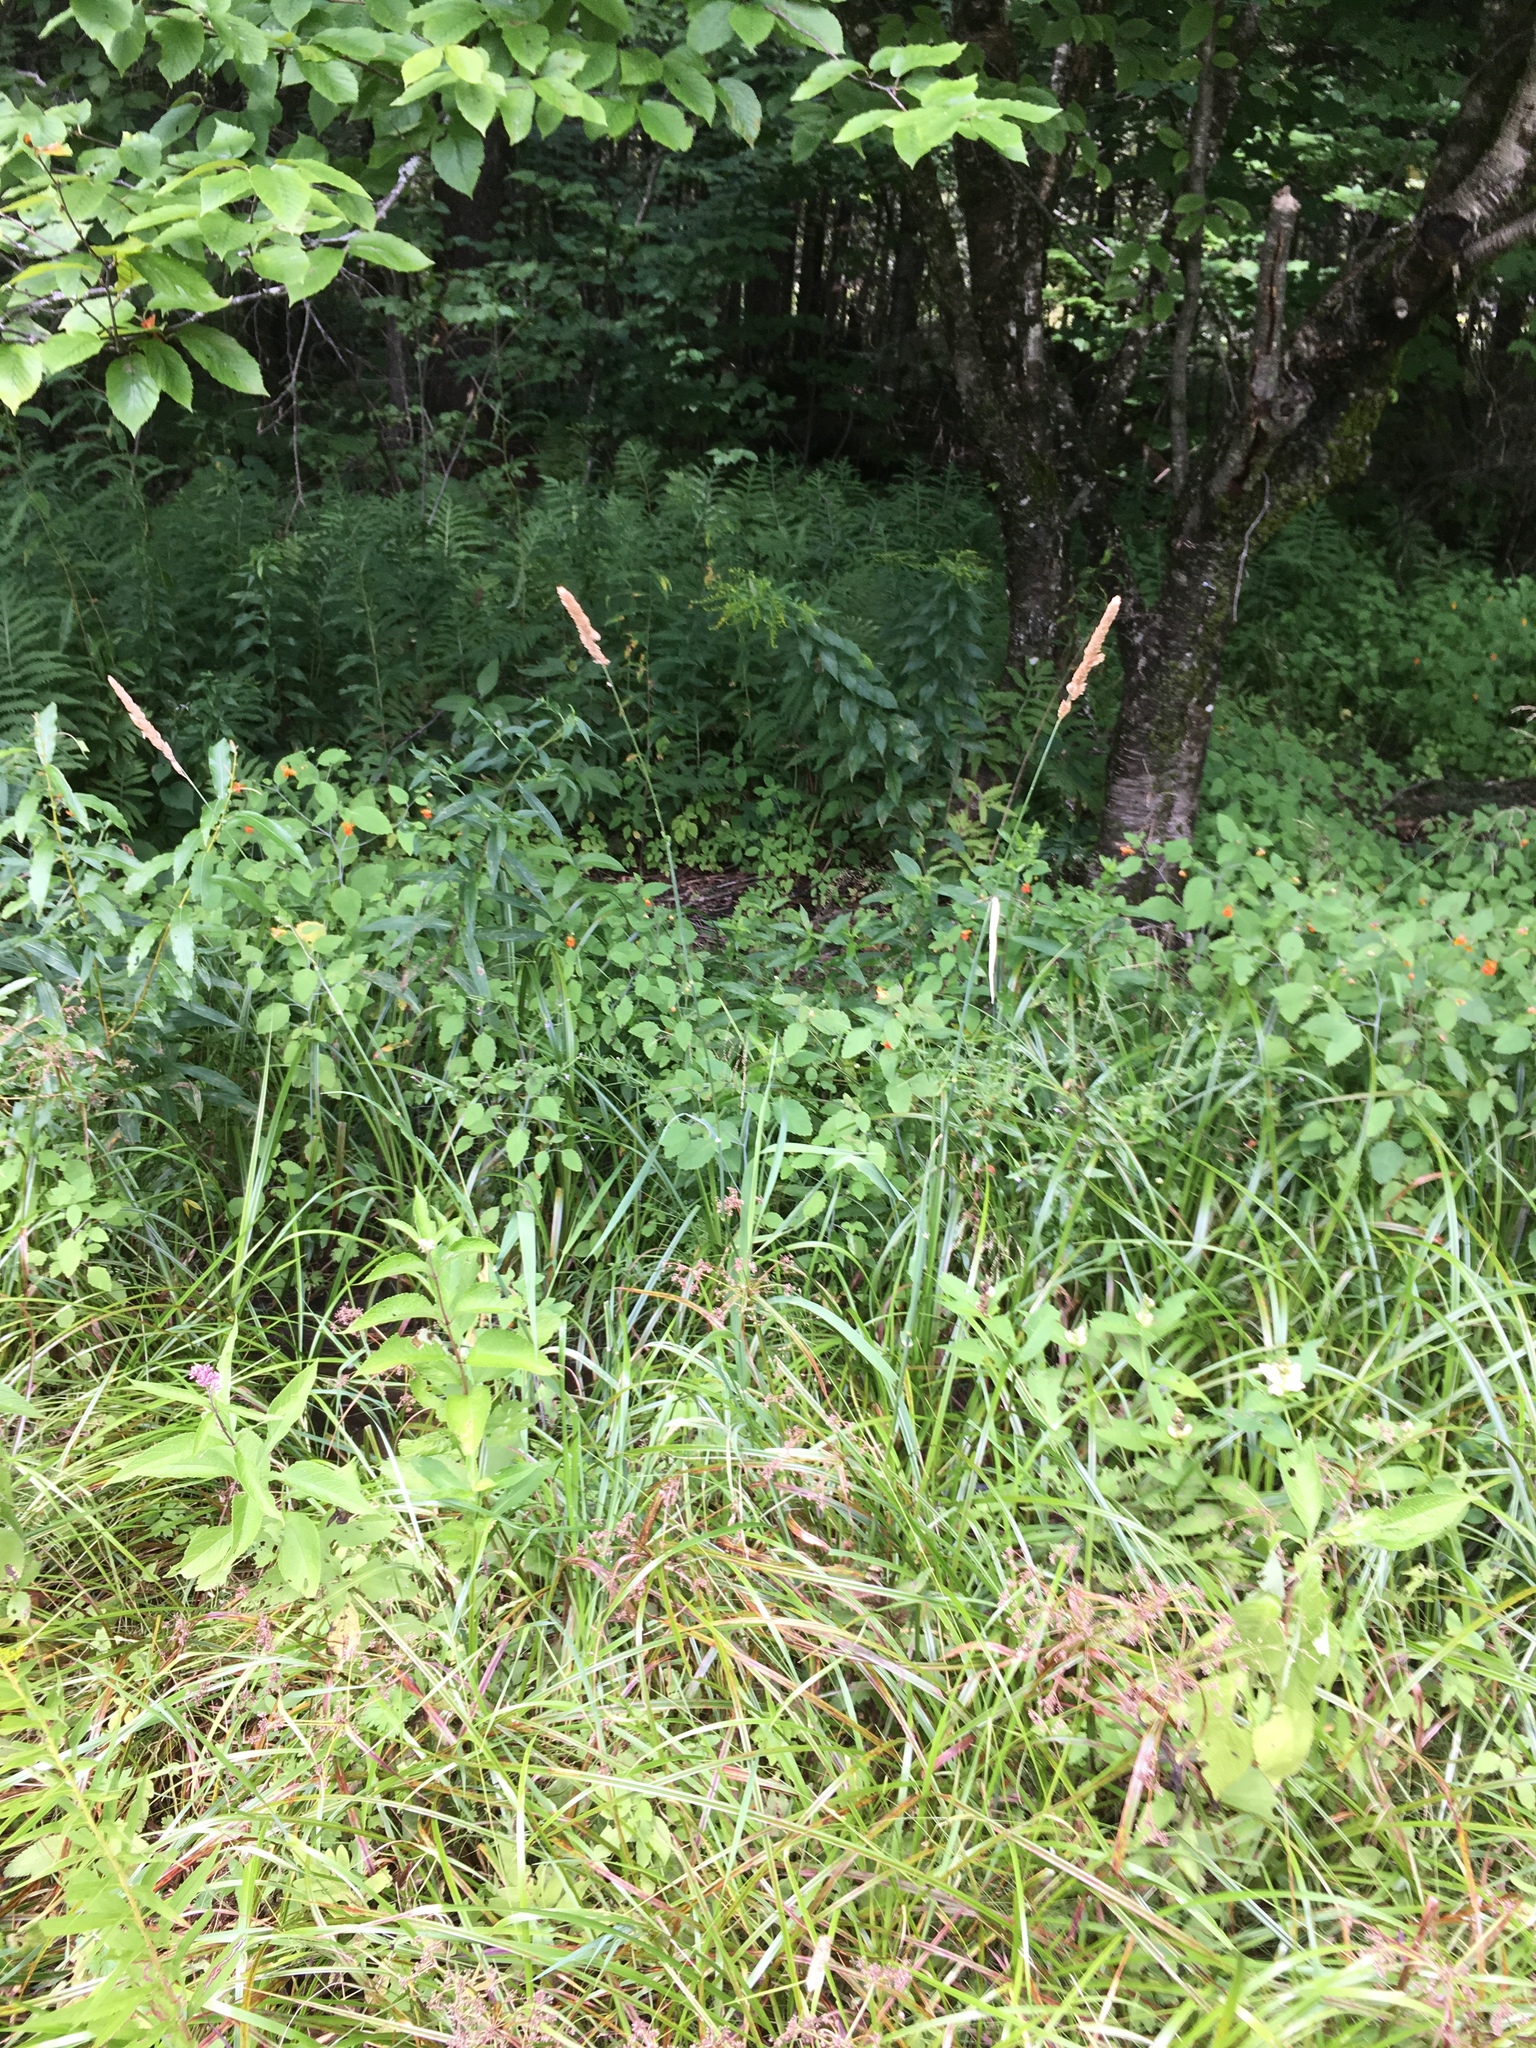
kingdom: Plantae
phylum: Tracheophyta
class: Liliopsida
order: Poales
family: Poaceae
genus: Phalaris
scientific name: Phalaris arundinacea
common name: Reed canary-grass
